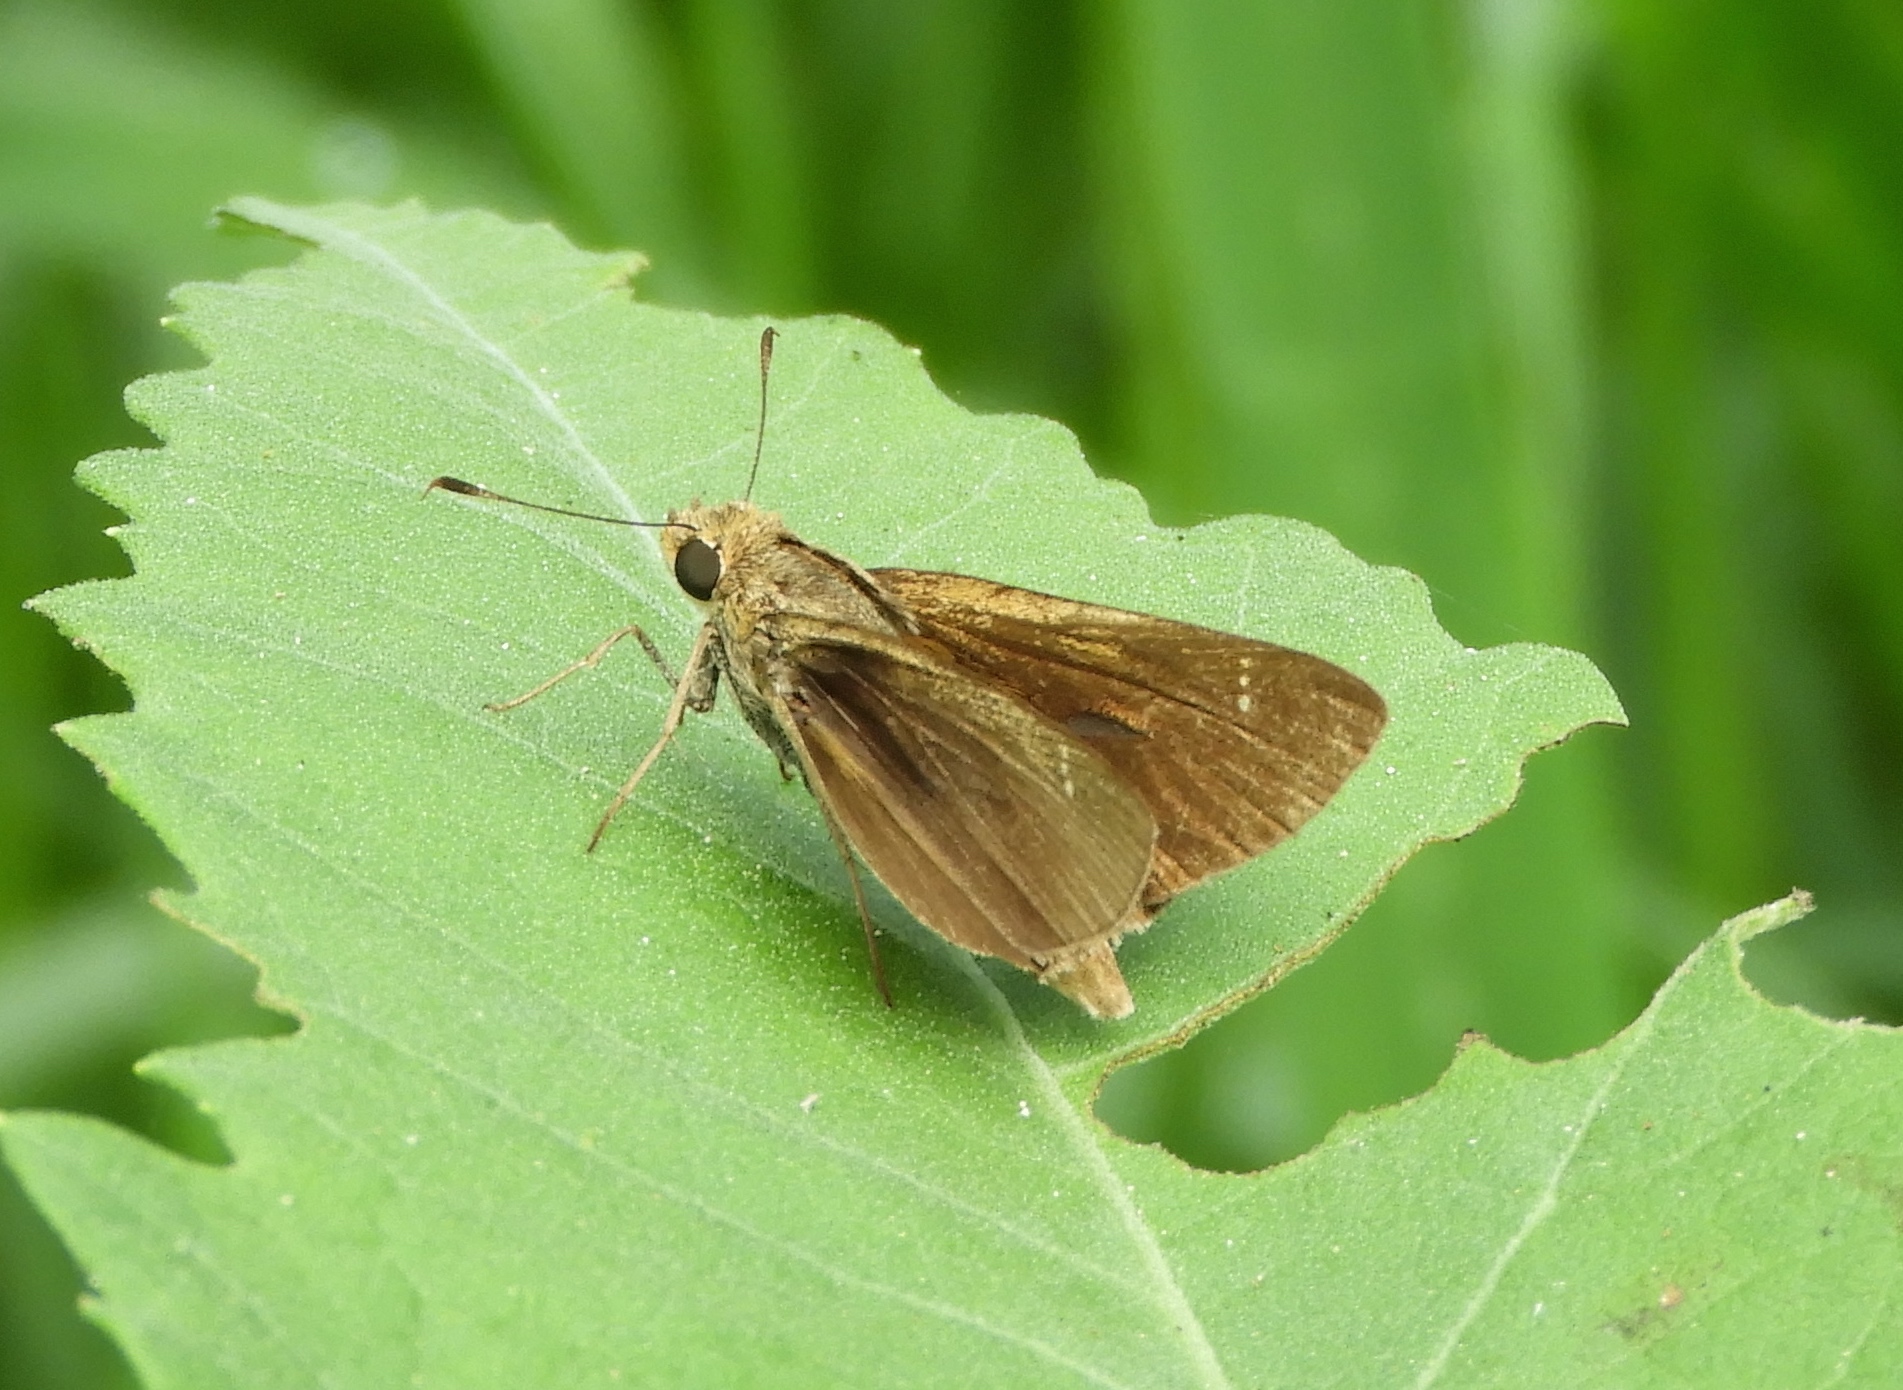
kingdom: Animalia
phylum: Arthropoda
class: Insecta
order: Lepidoptera
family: Hesperiidae
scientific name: Hesperiidae
